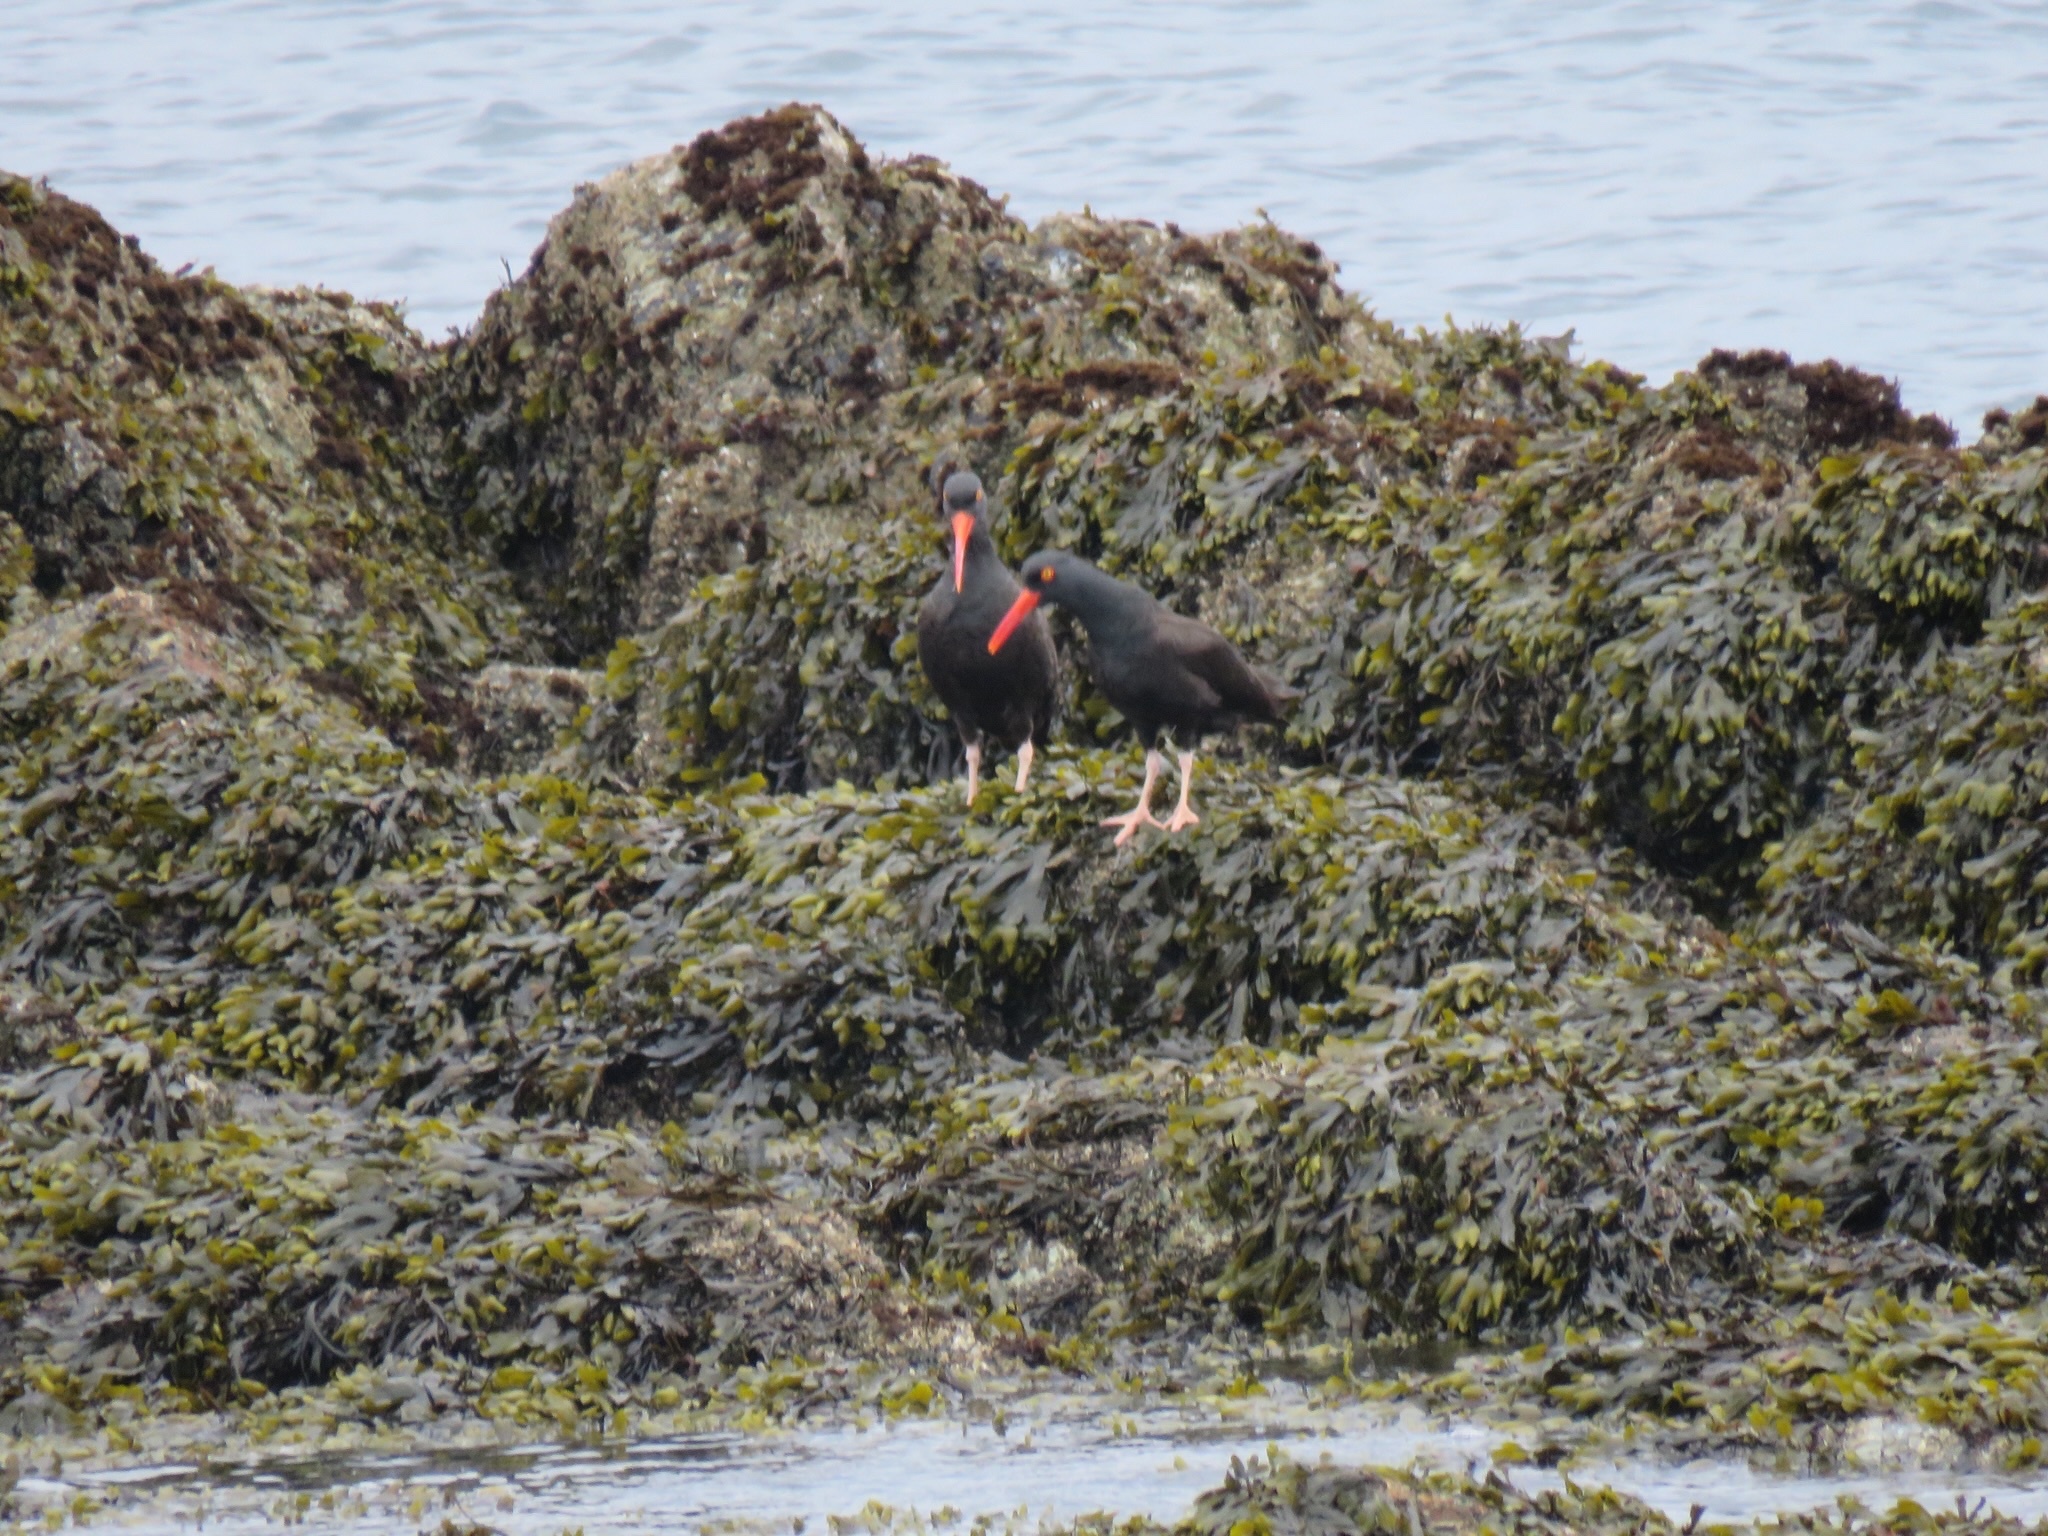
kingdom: Animalia
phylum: Chordata
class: Aves
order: Charadriiformes
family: Haematopodidae
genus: Haematopus
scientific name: Haematopus bachmani
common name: Black oystercatcher
